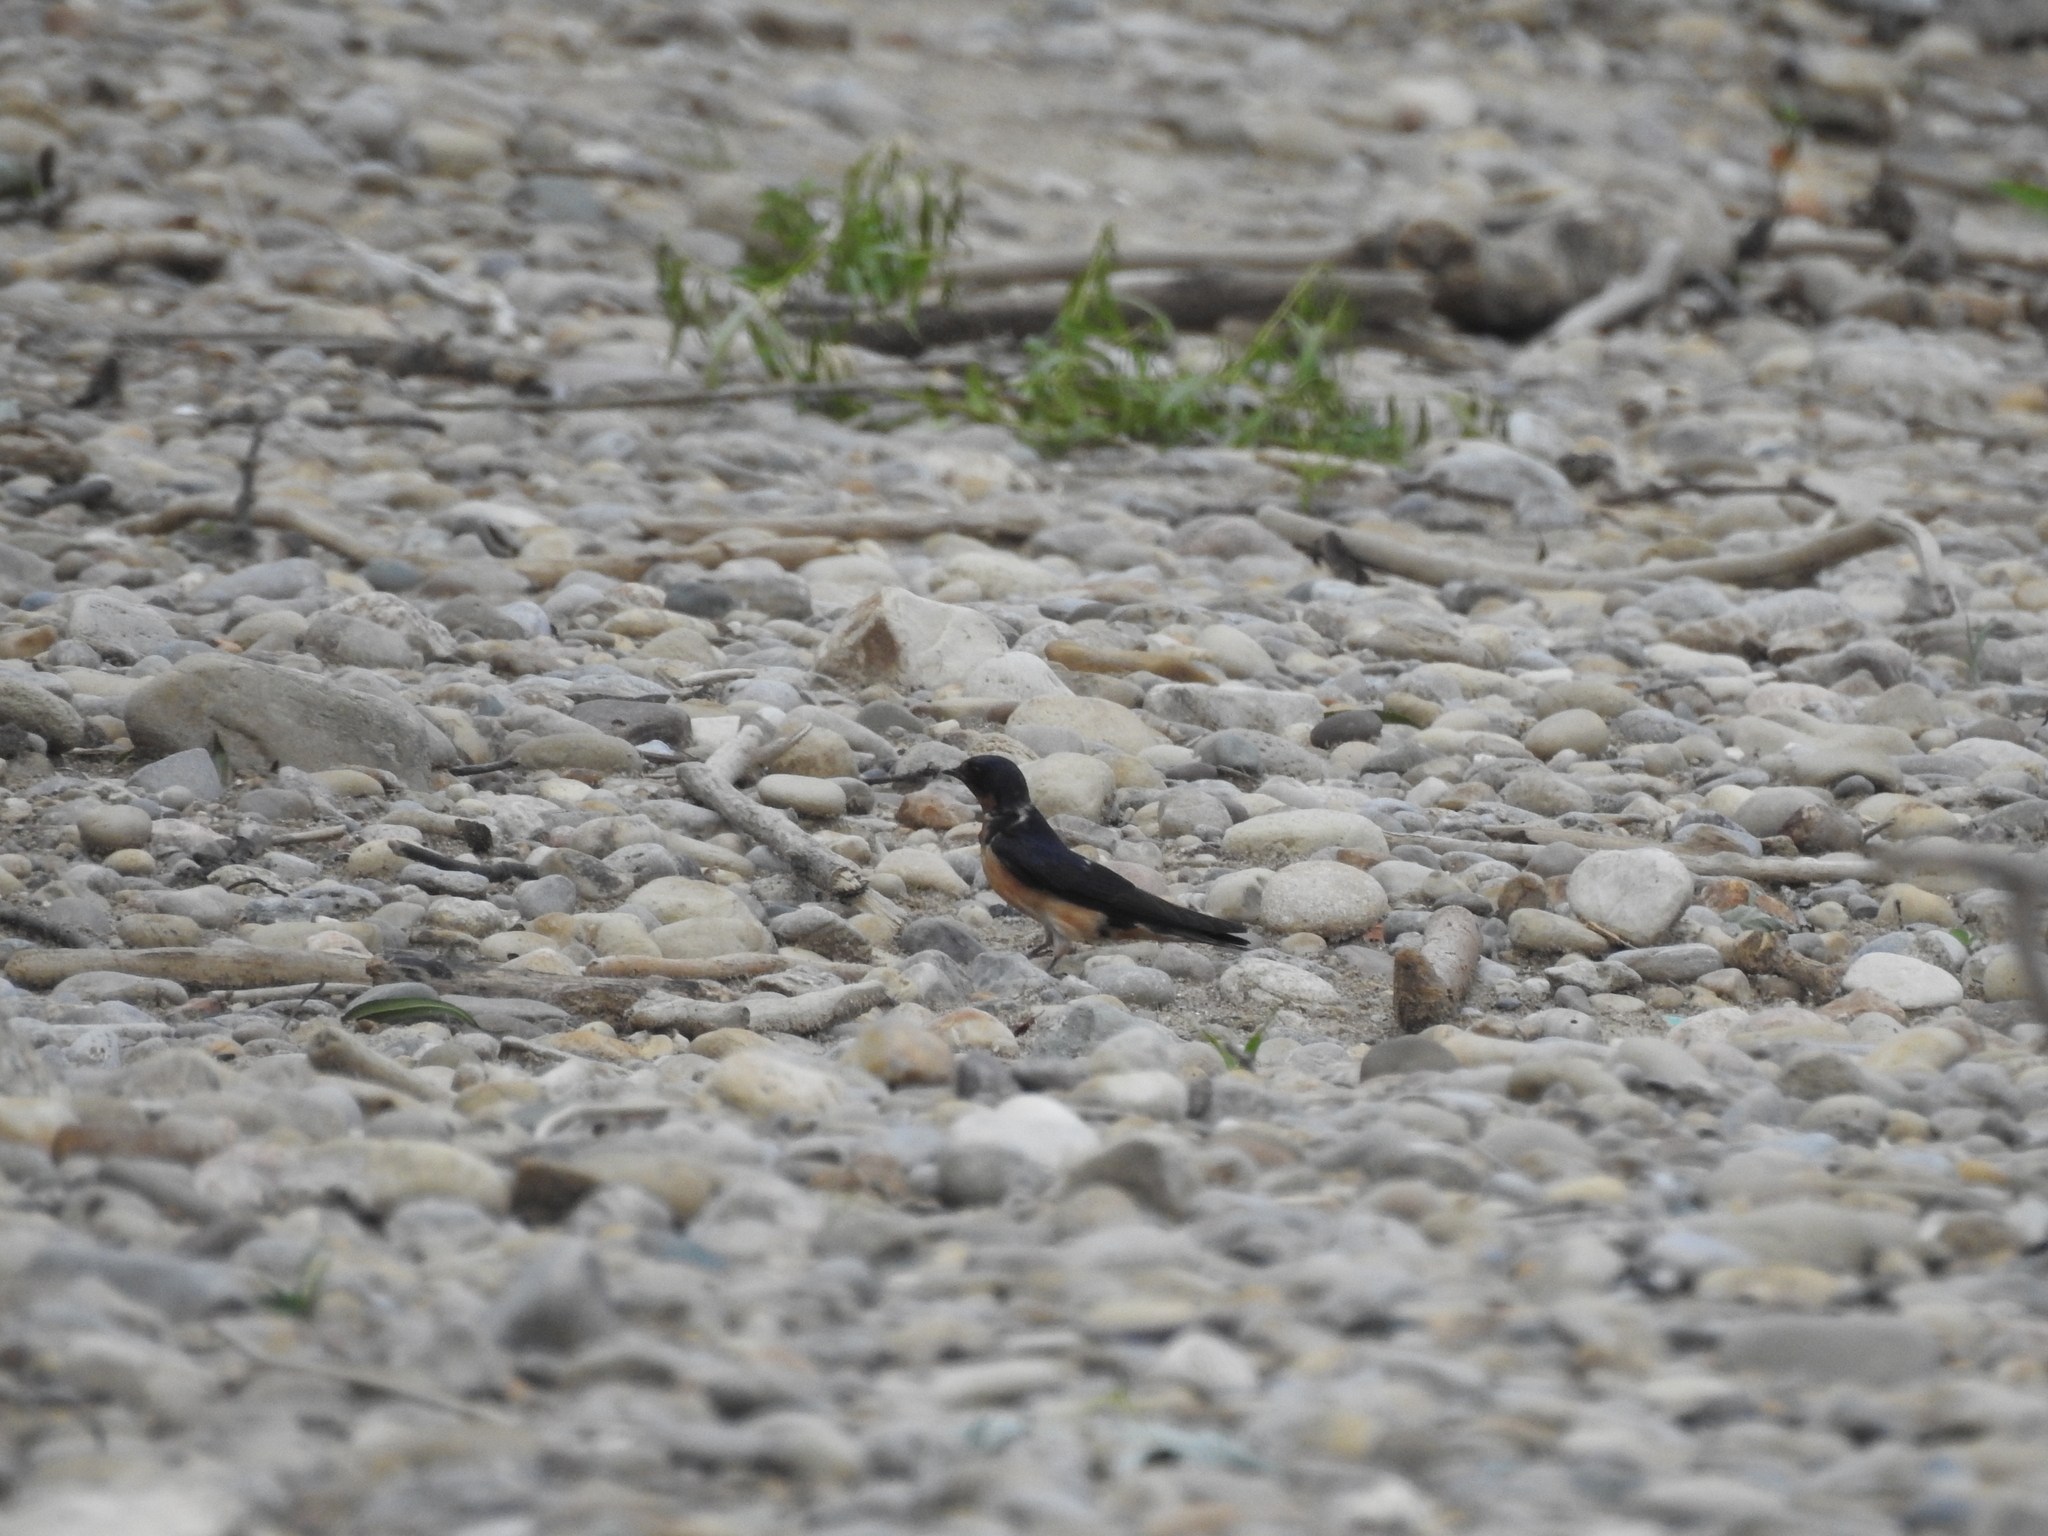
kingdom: Animalia
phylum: Chordata
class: Aves
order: Passeriformes
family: Hirundinidae
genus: Hirundo
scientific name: Hirundo rustica
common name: Barn swallow
